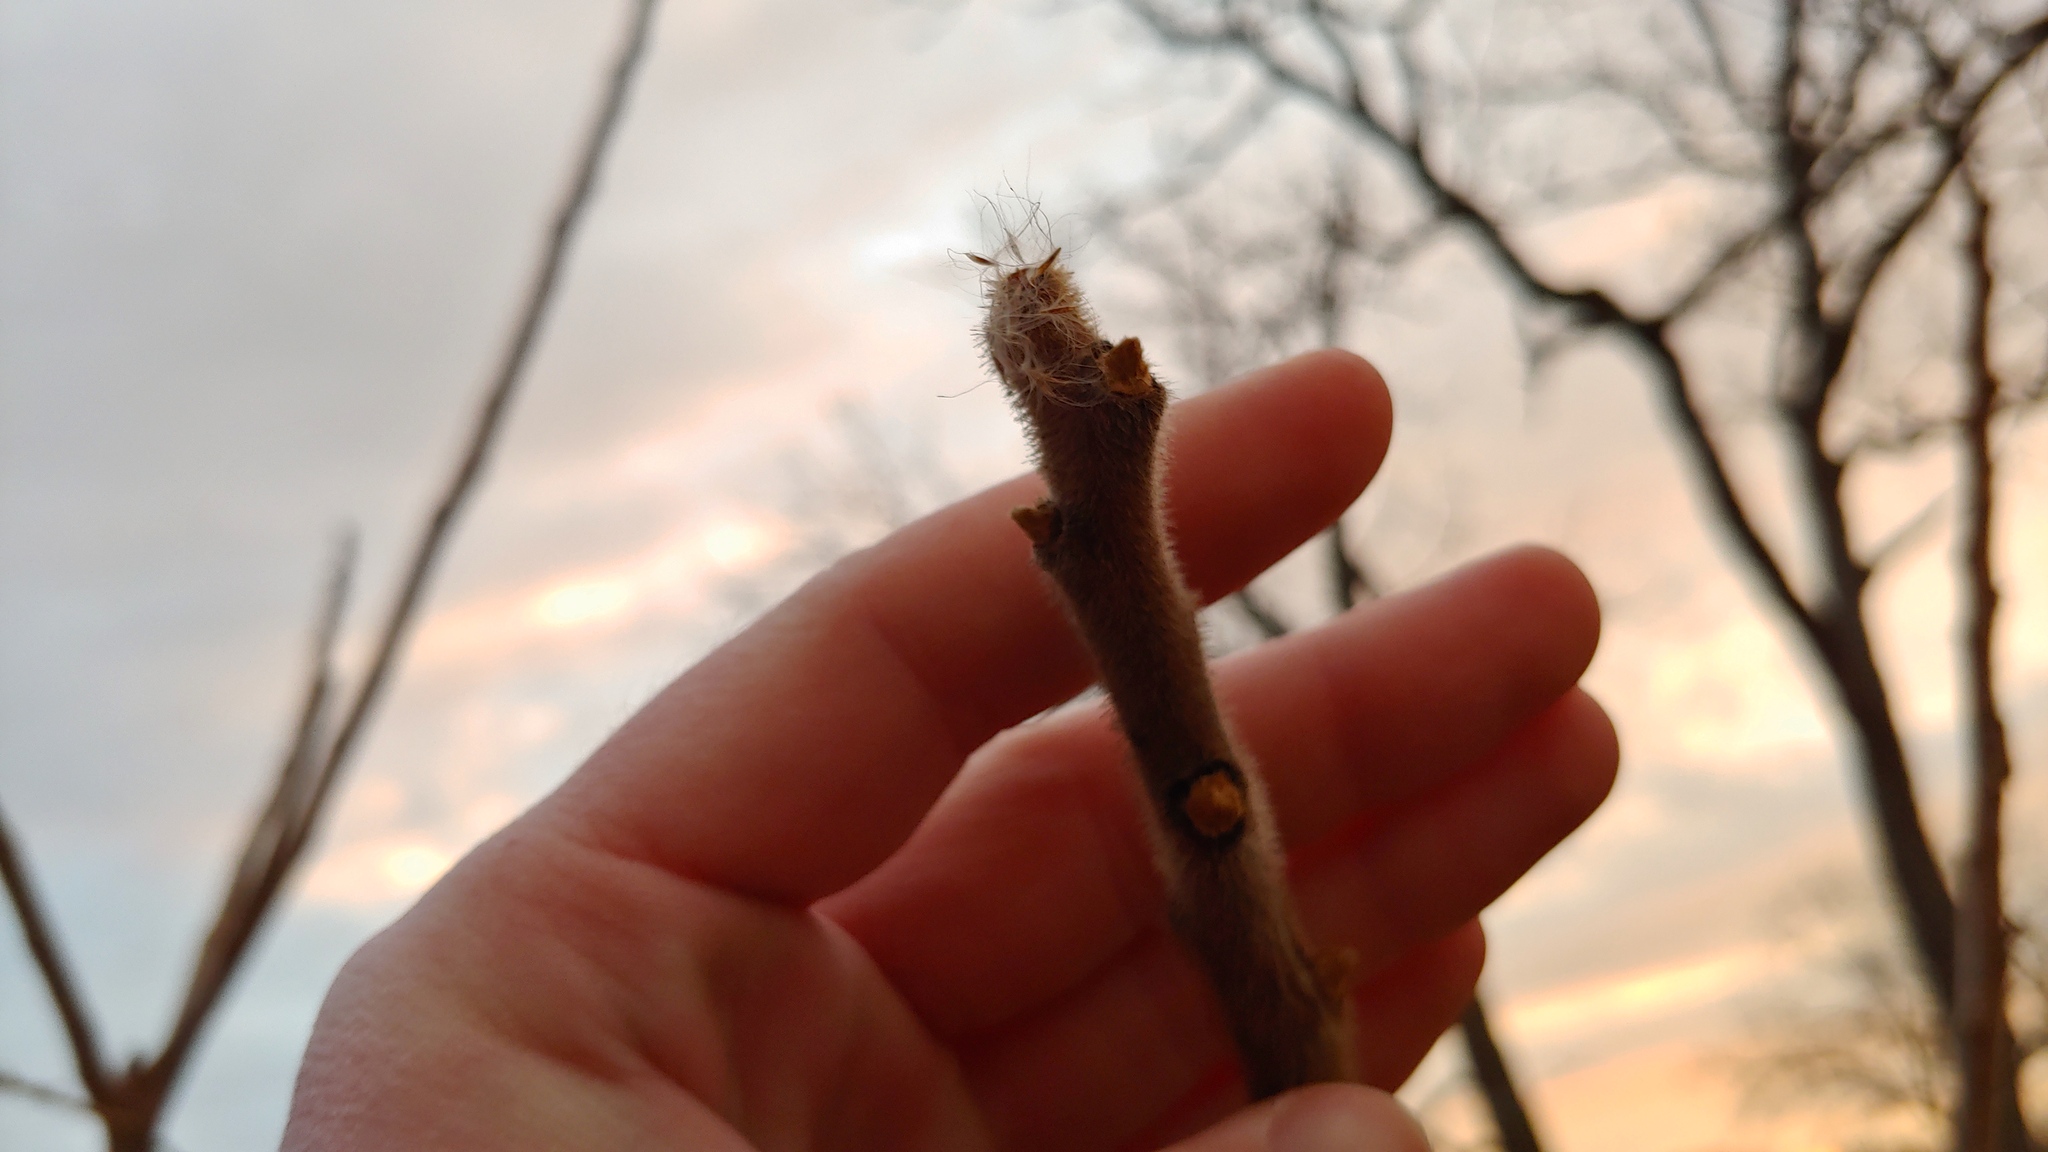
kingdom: Plantae
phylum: Tracheophyta
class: Magnoliopsida
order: Sapindales
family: Anacardiaceae
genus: Rhus
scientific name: Rhus typhina
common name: Staghorn sumac
